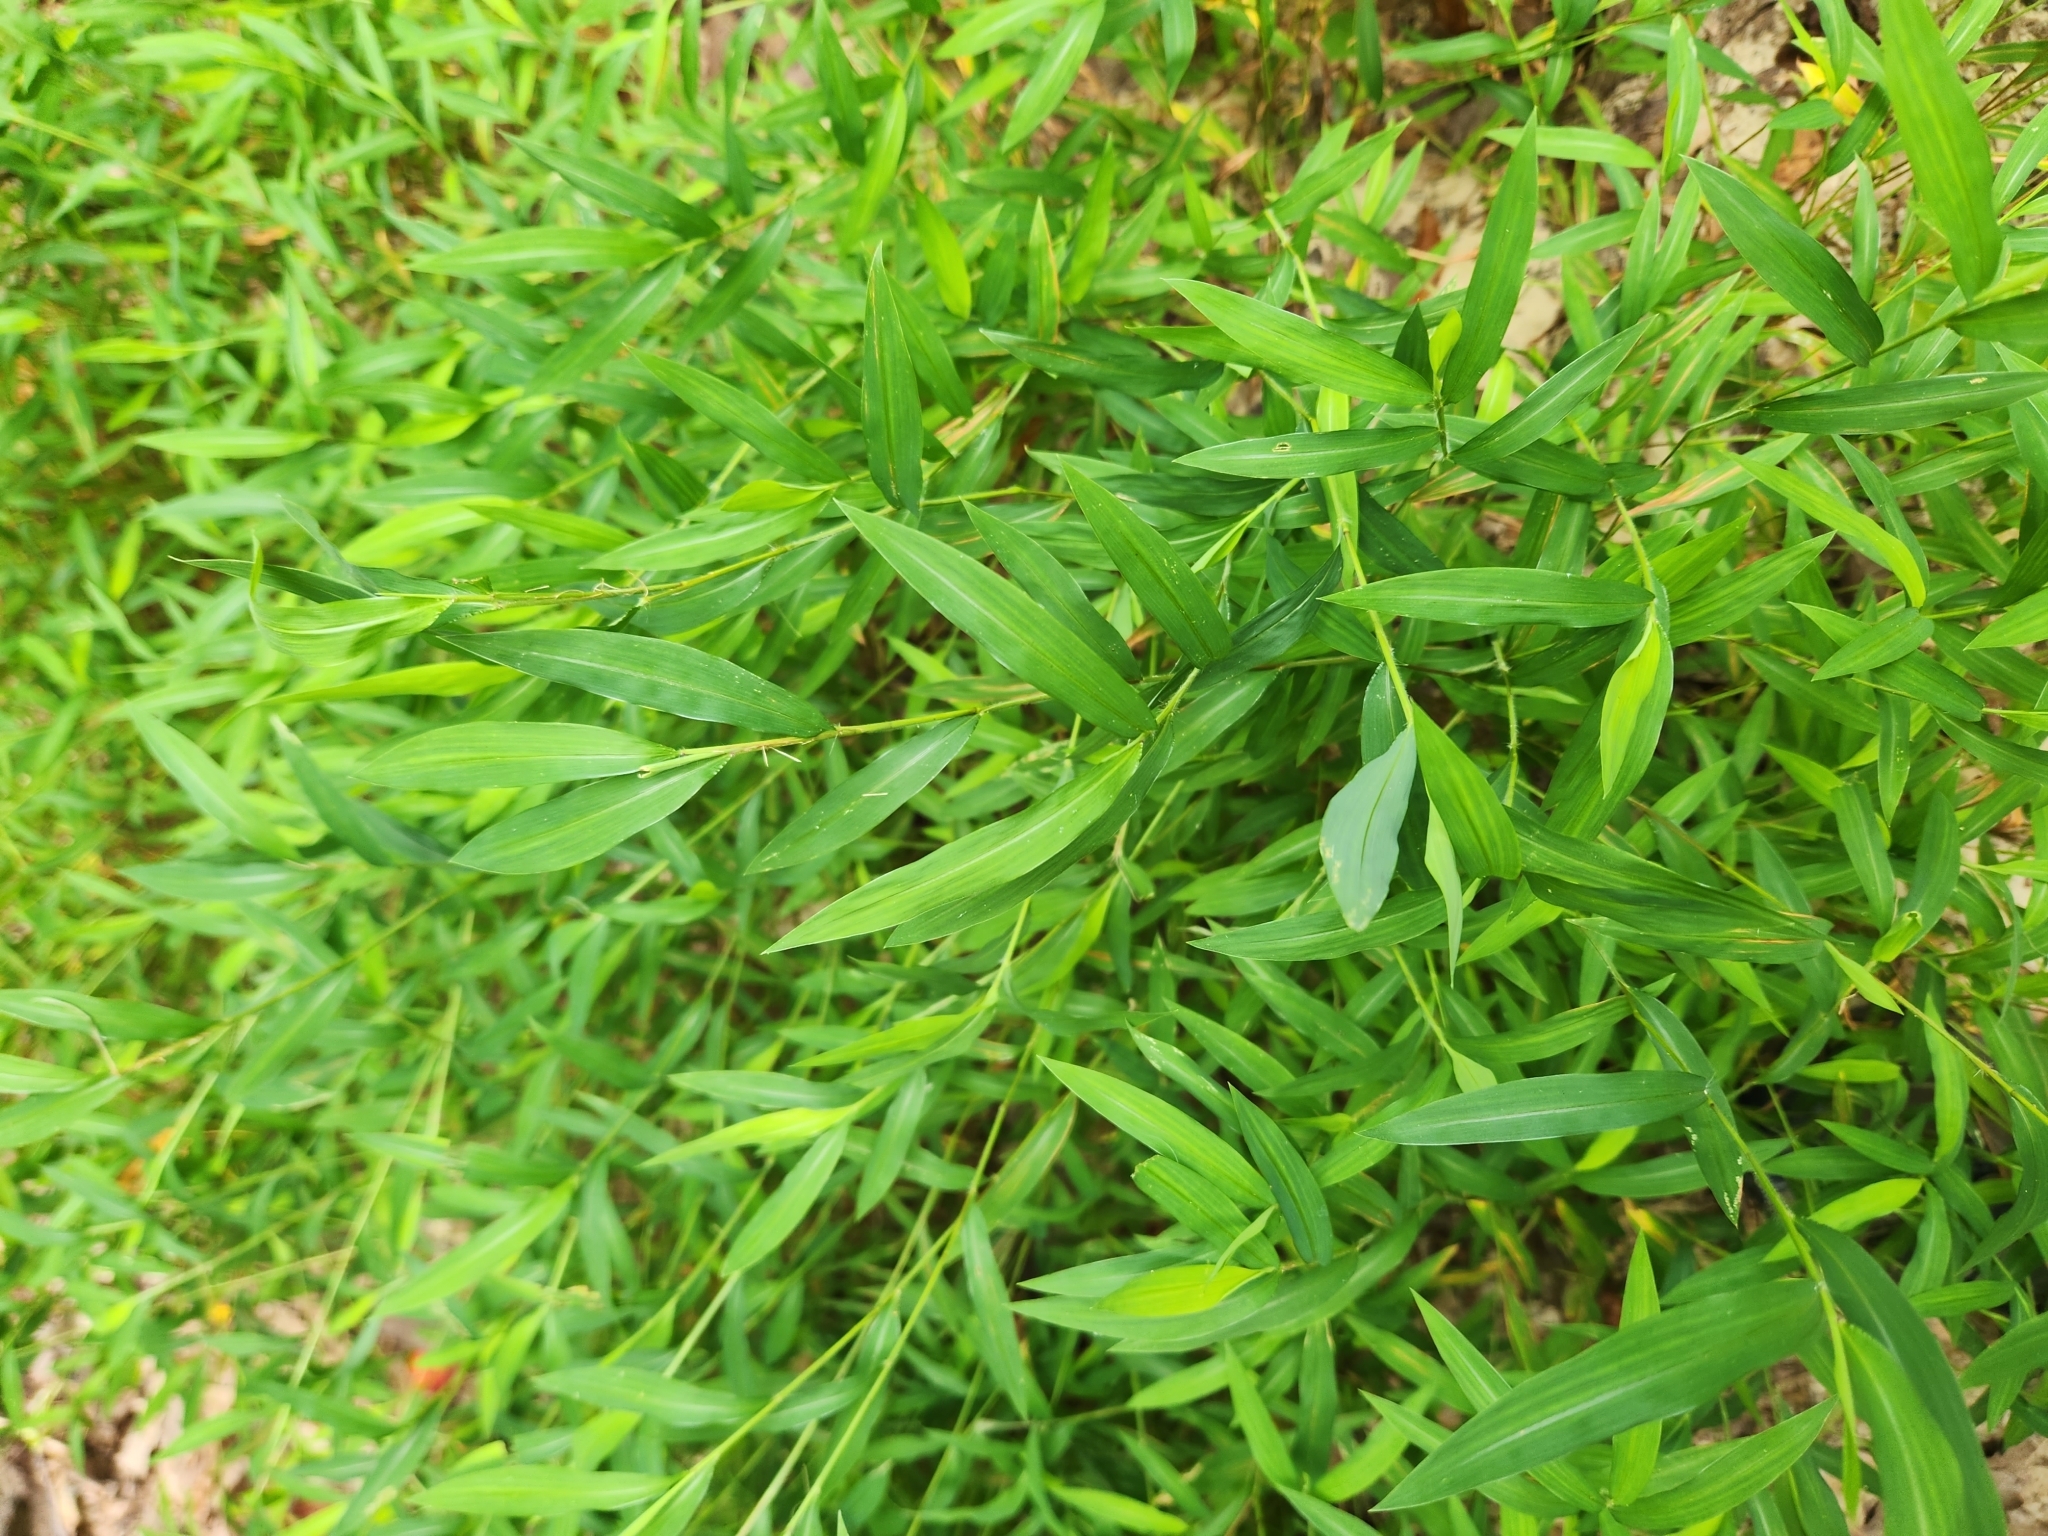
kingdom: Plantae
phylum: Tracheophyta
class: Liliopsida
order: Poales
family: Poaceae
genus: Microstegium
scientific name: Microstegium vimineum
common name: Japanese stiltgrass
